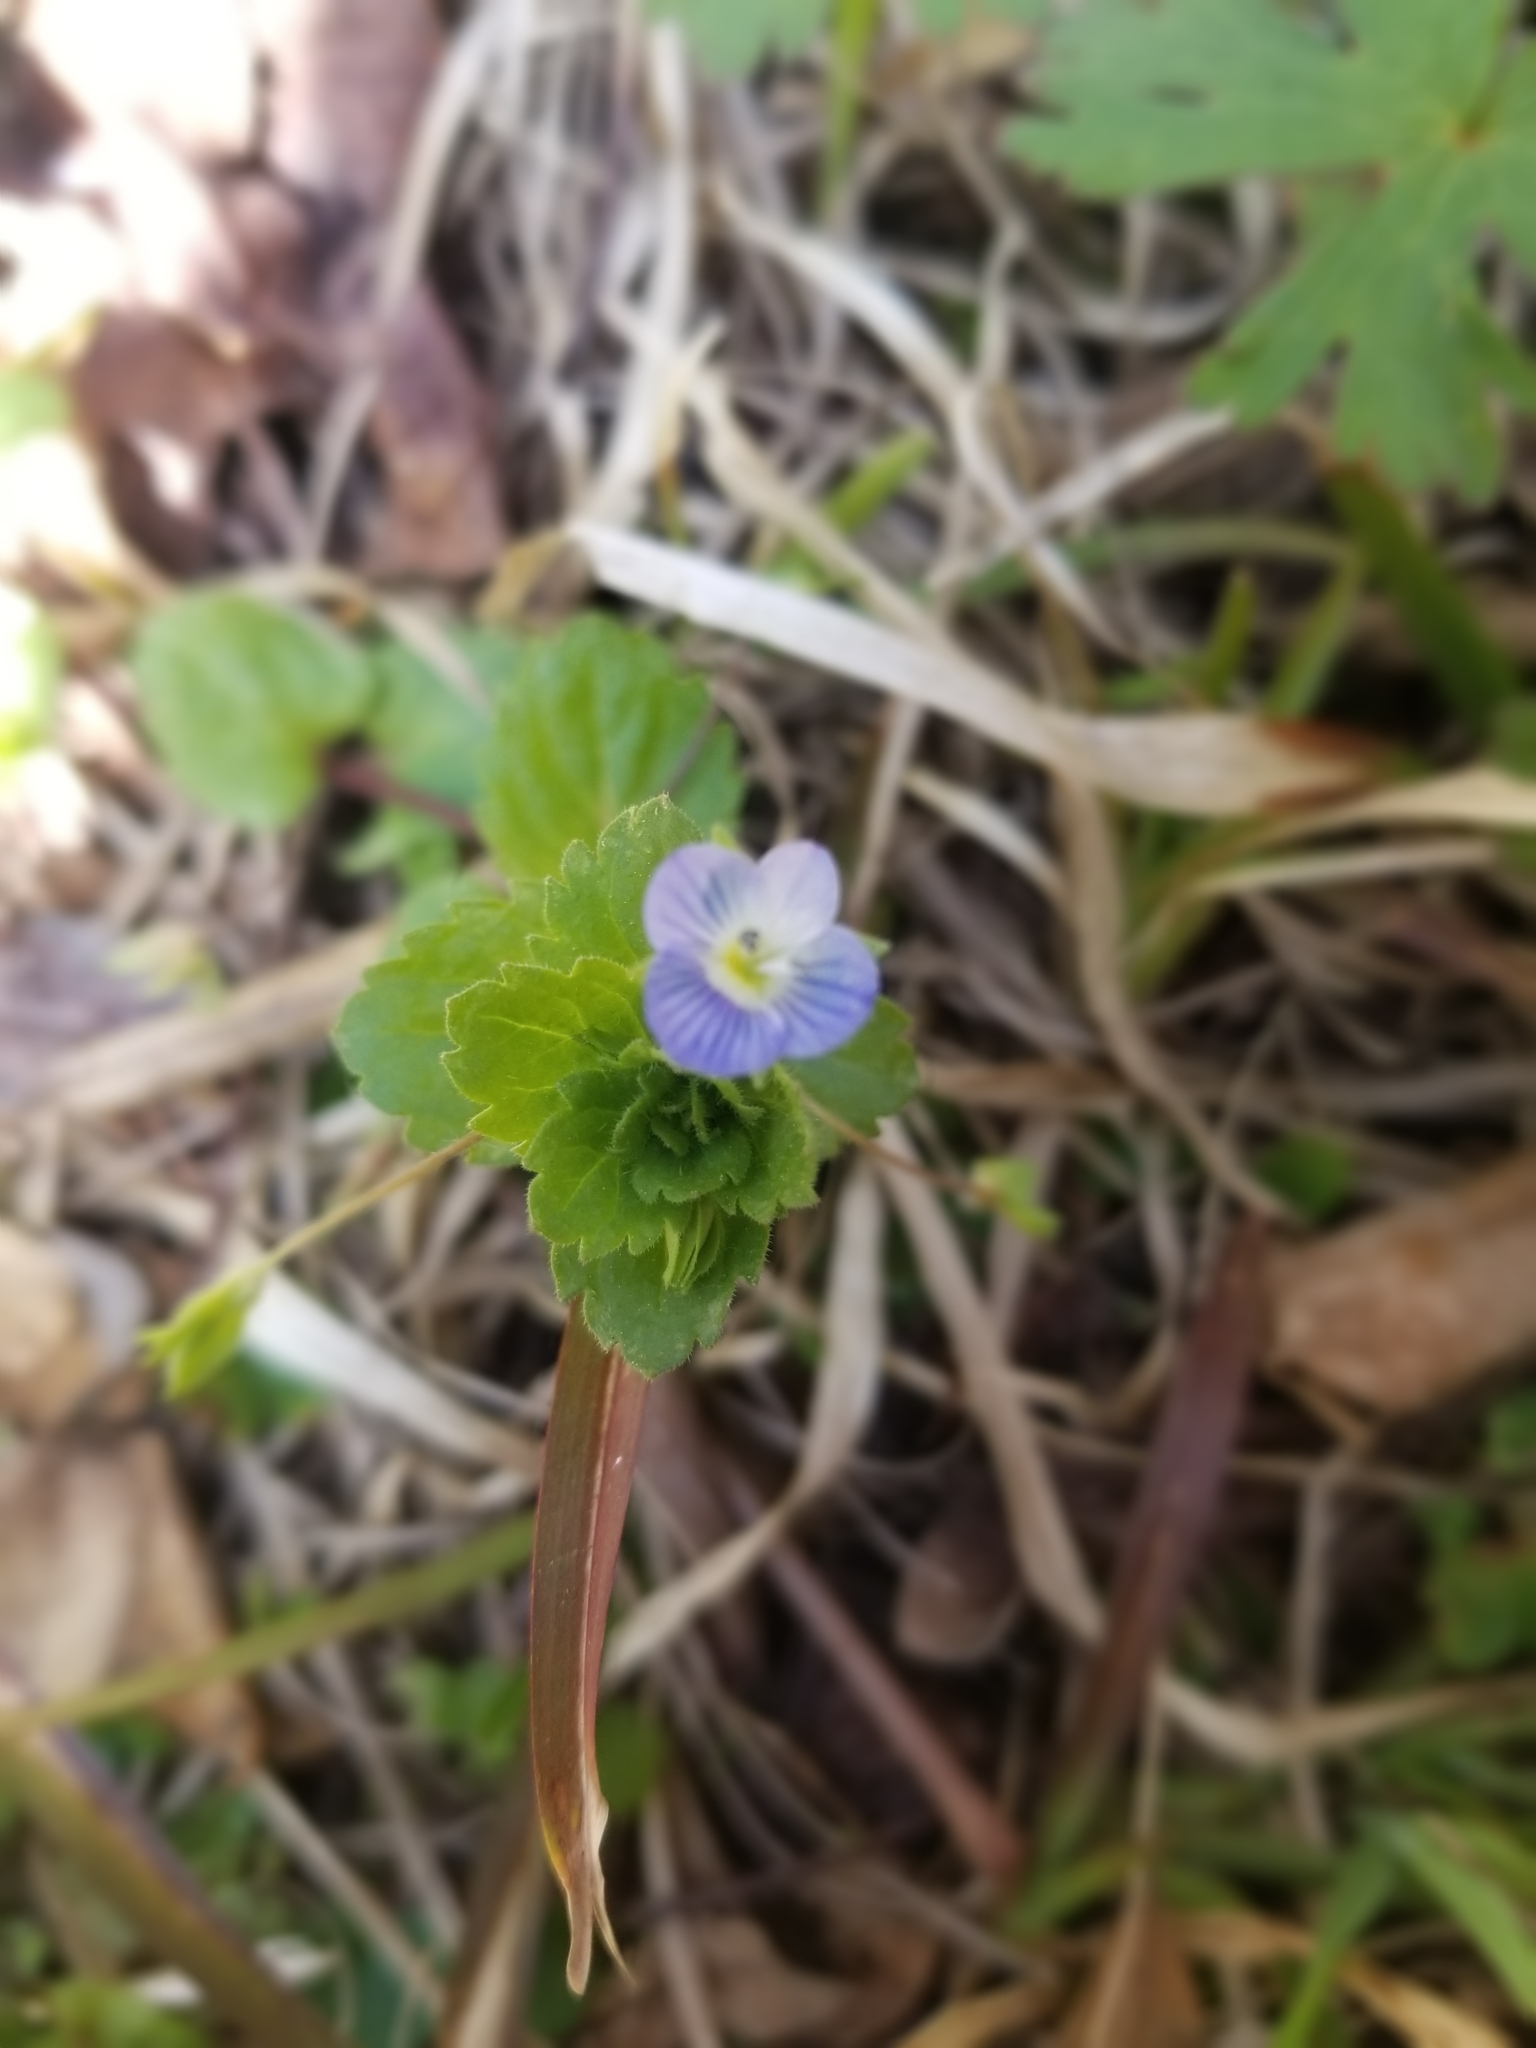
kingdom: Plantae
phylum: Tracheophyta
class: Magnoliopsida
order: Lamiales
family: Plantaginaceae
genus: Veronica
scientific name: Veronica persica
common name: Common field-speedwell
